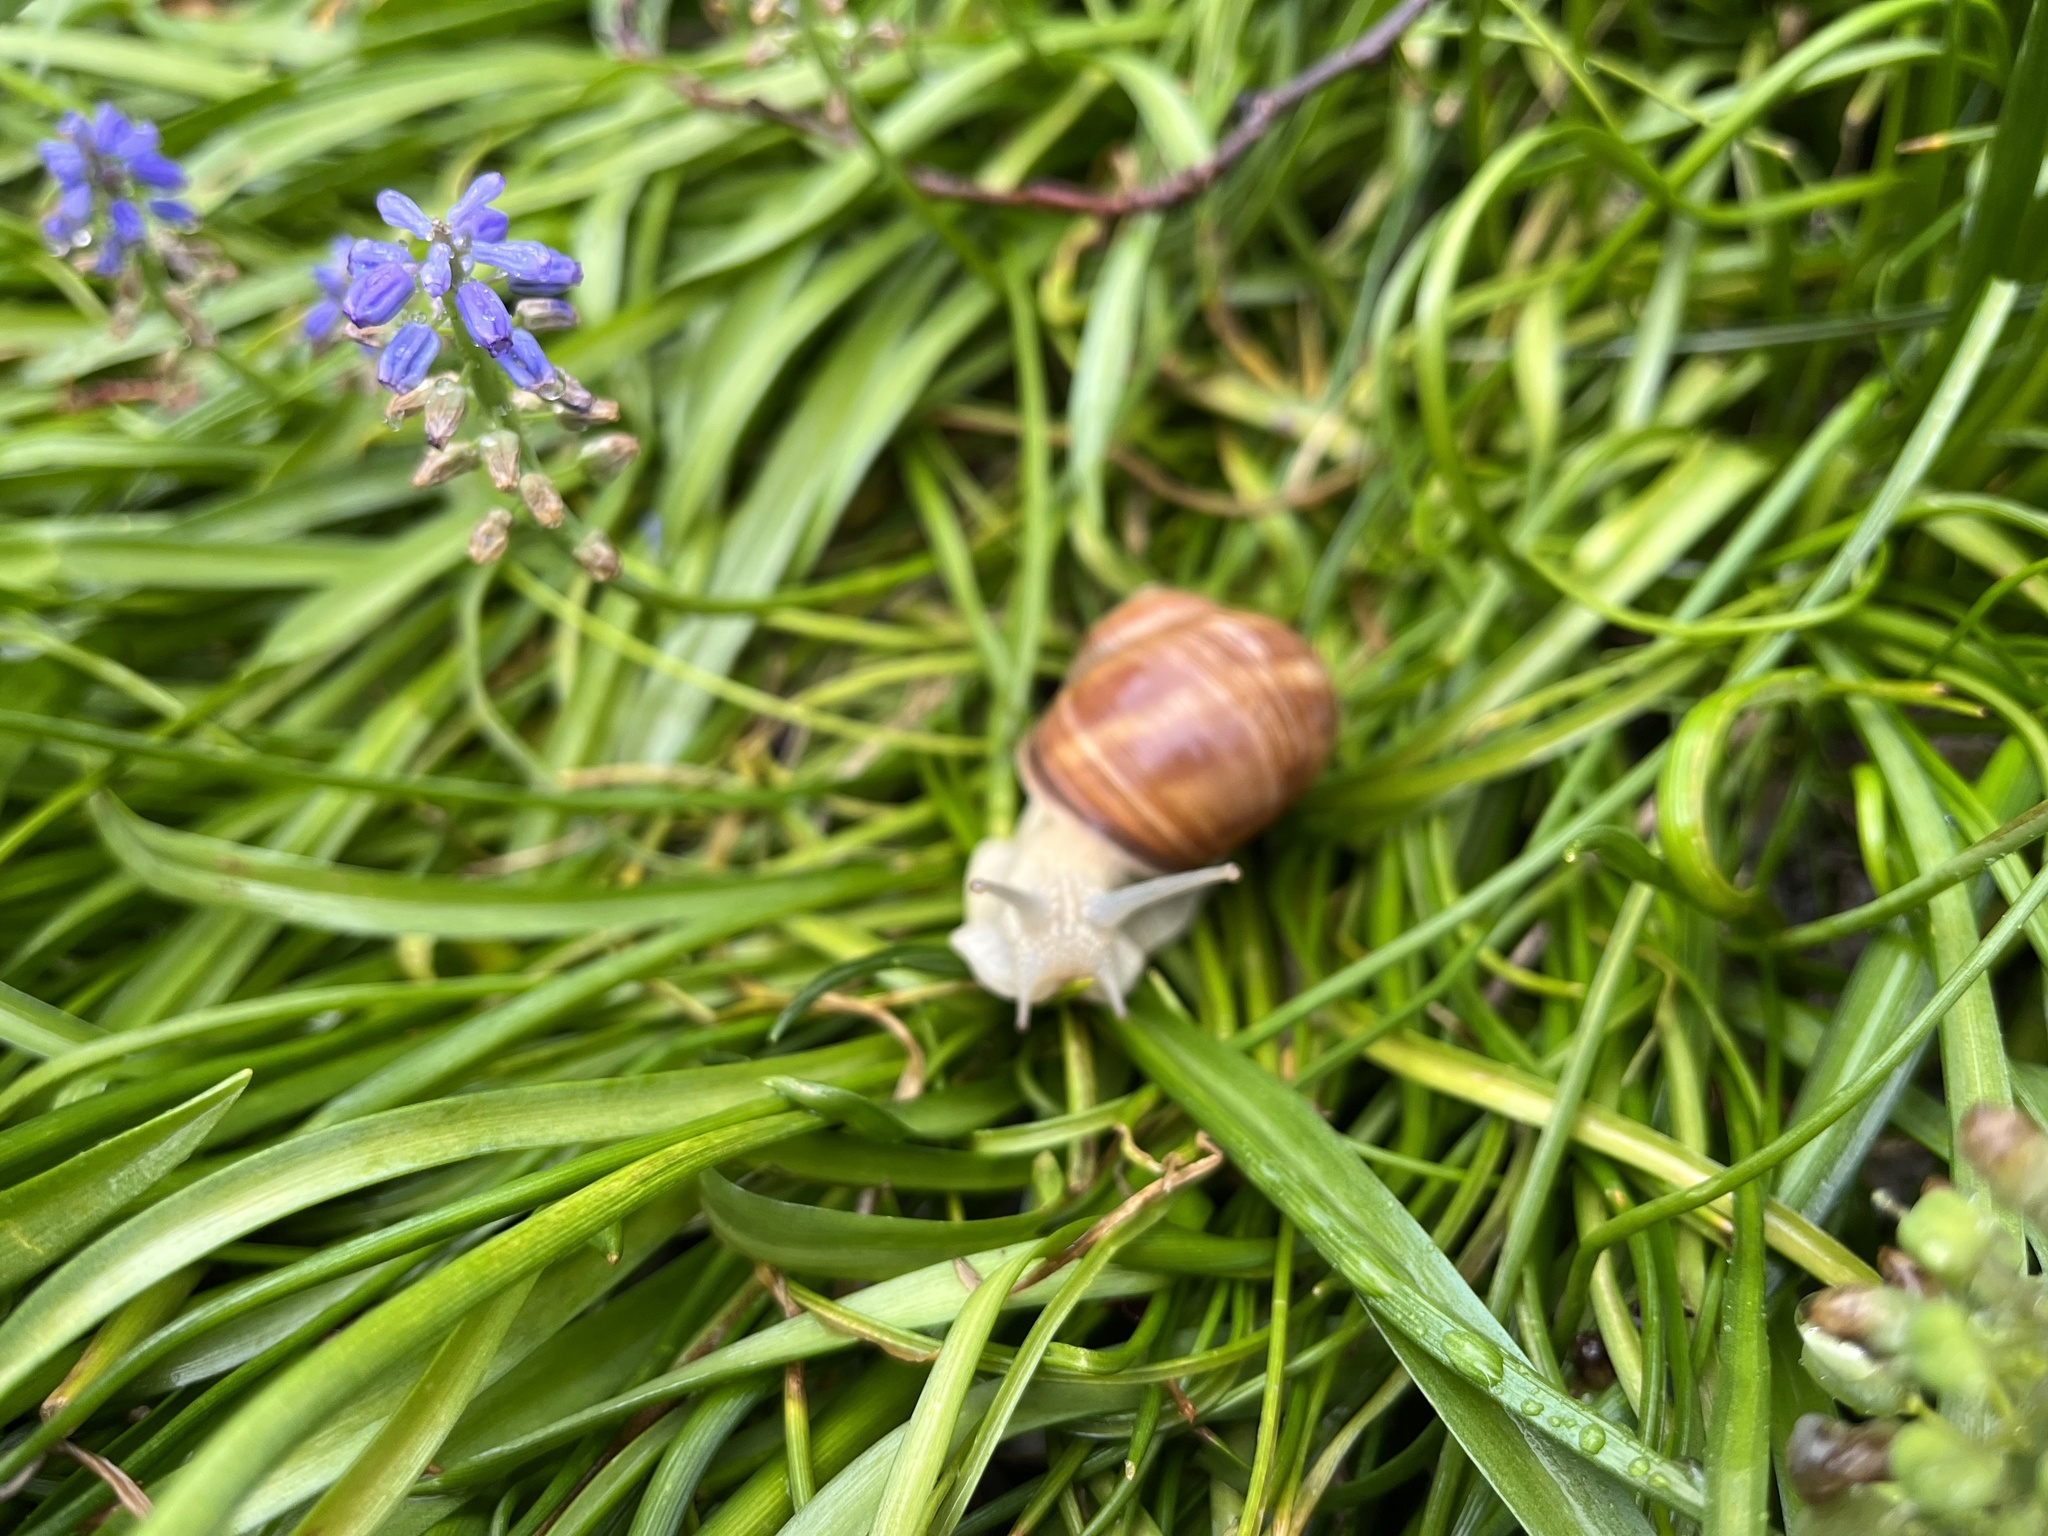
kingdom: Animalia
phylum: Mollusca
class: Gastropoda
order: Stylommatophora
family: Helicidae
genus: Helix
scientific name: Helix pomatia
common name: Roman snail
